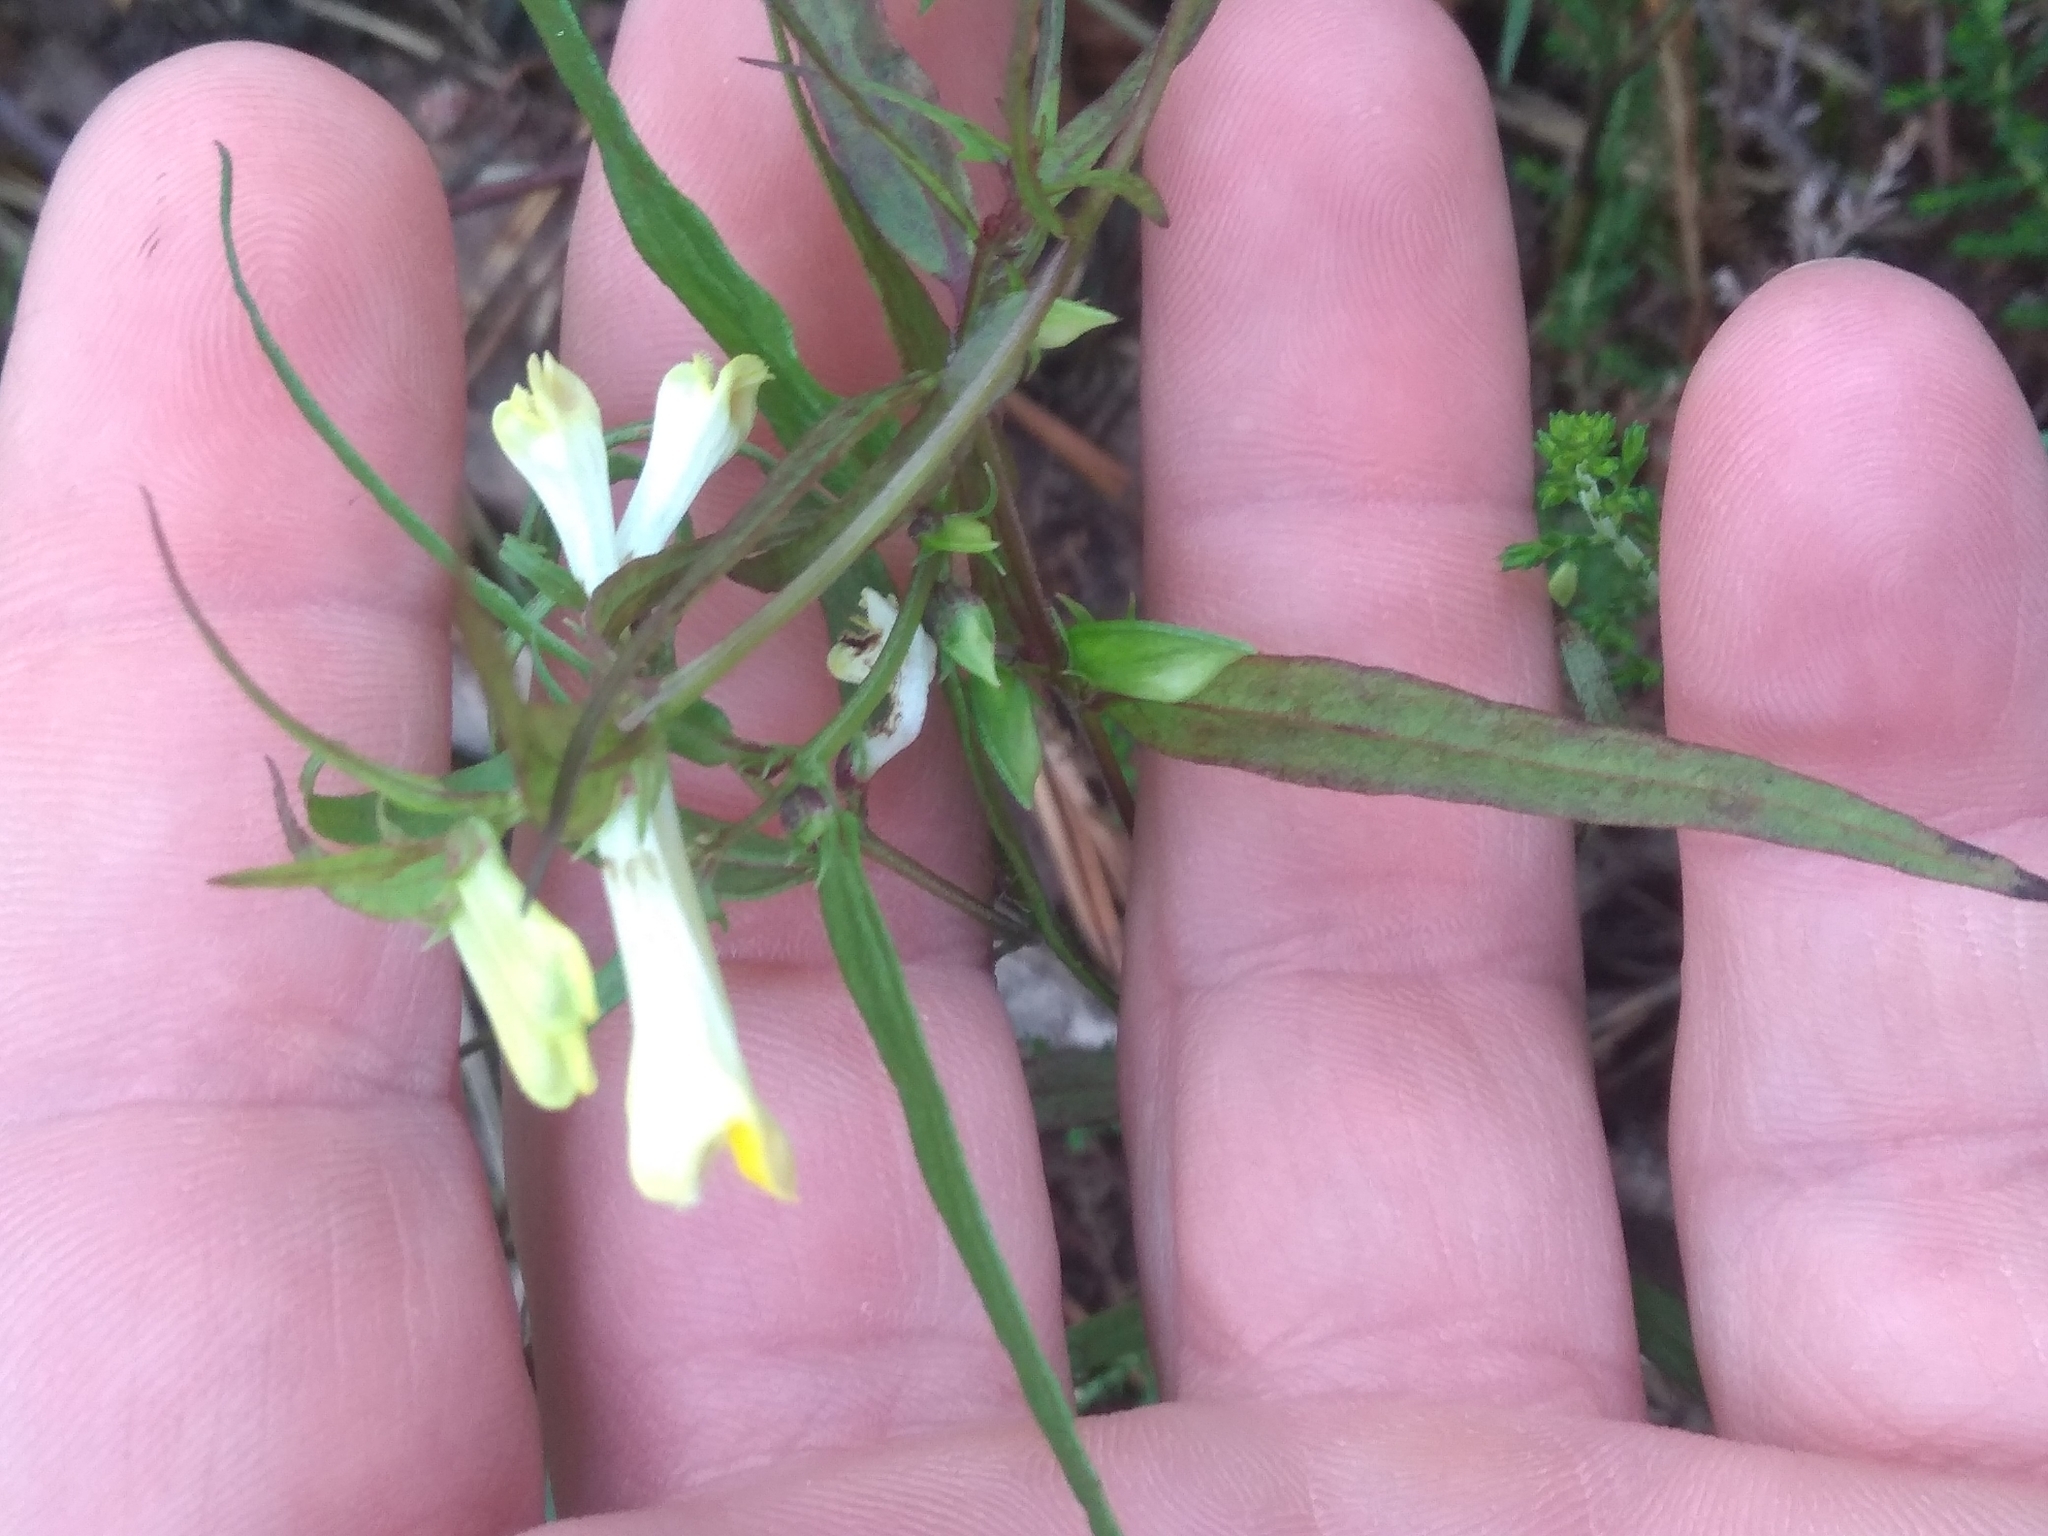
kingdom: Plantae
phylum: Tracheophyta
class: Magnoliopsida
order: Lamiales
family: Orobanchaceae
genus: Melampyrum
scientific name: Melampyrum pratense
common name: Common cow-wheat
